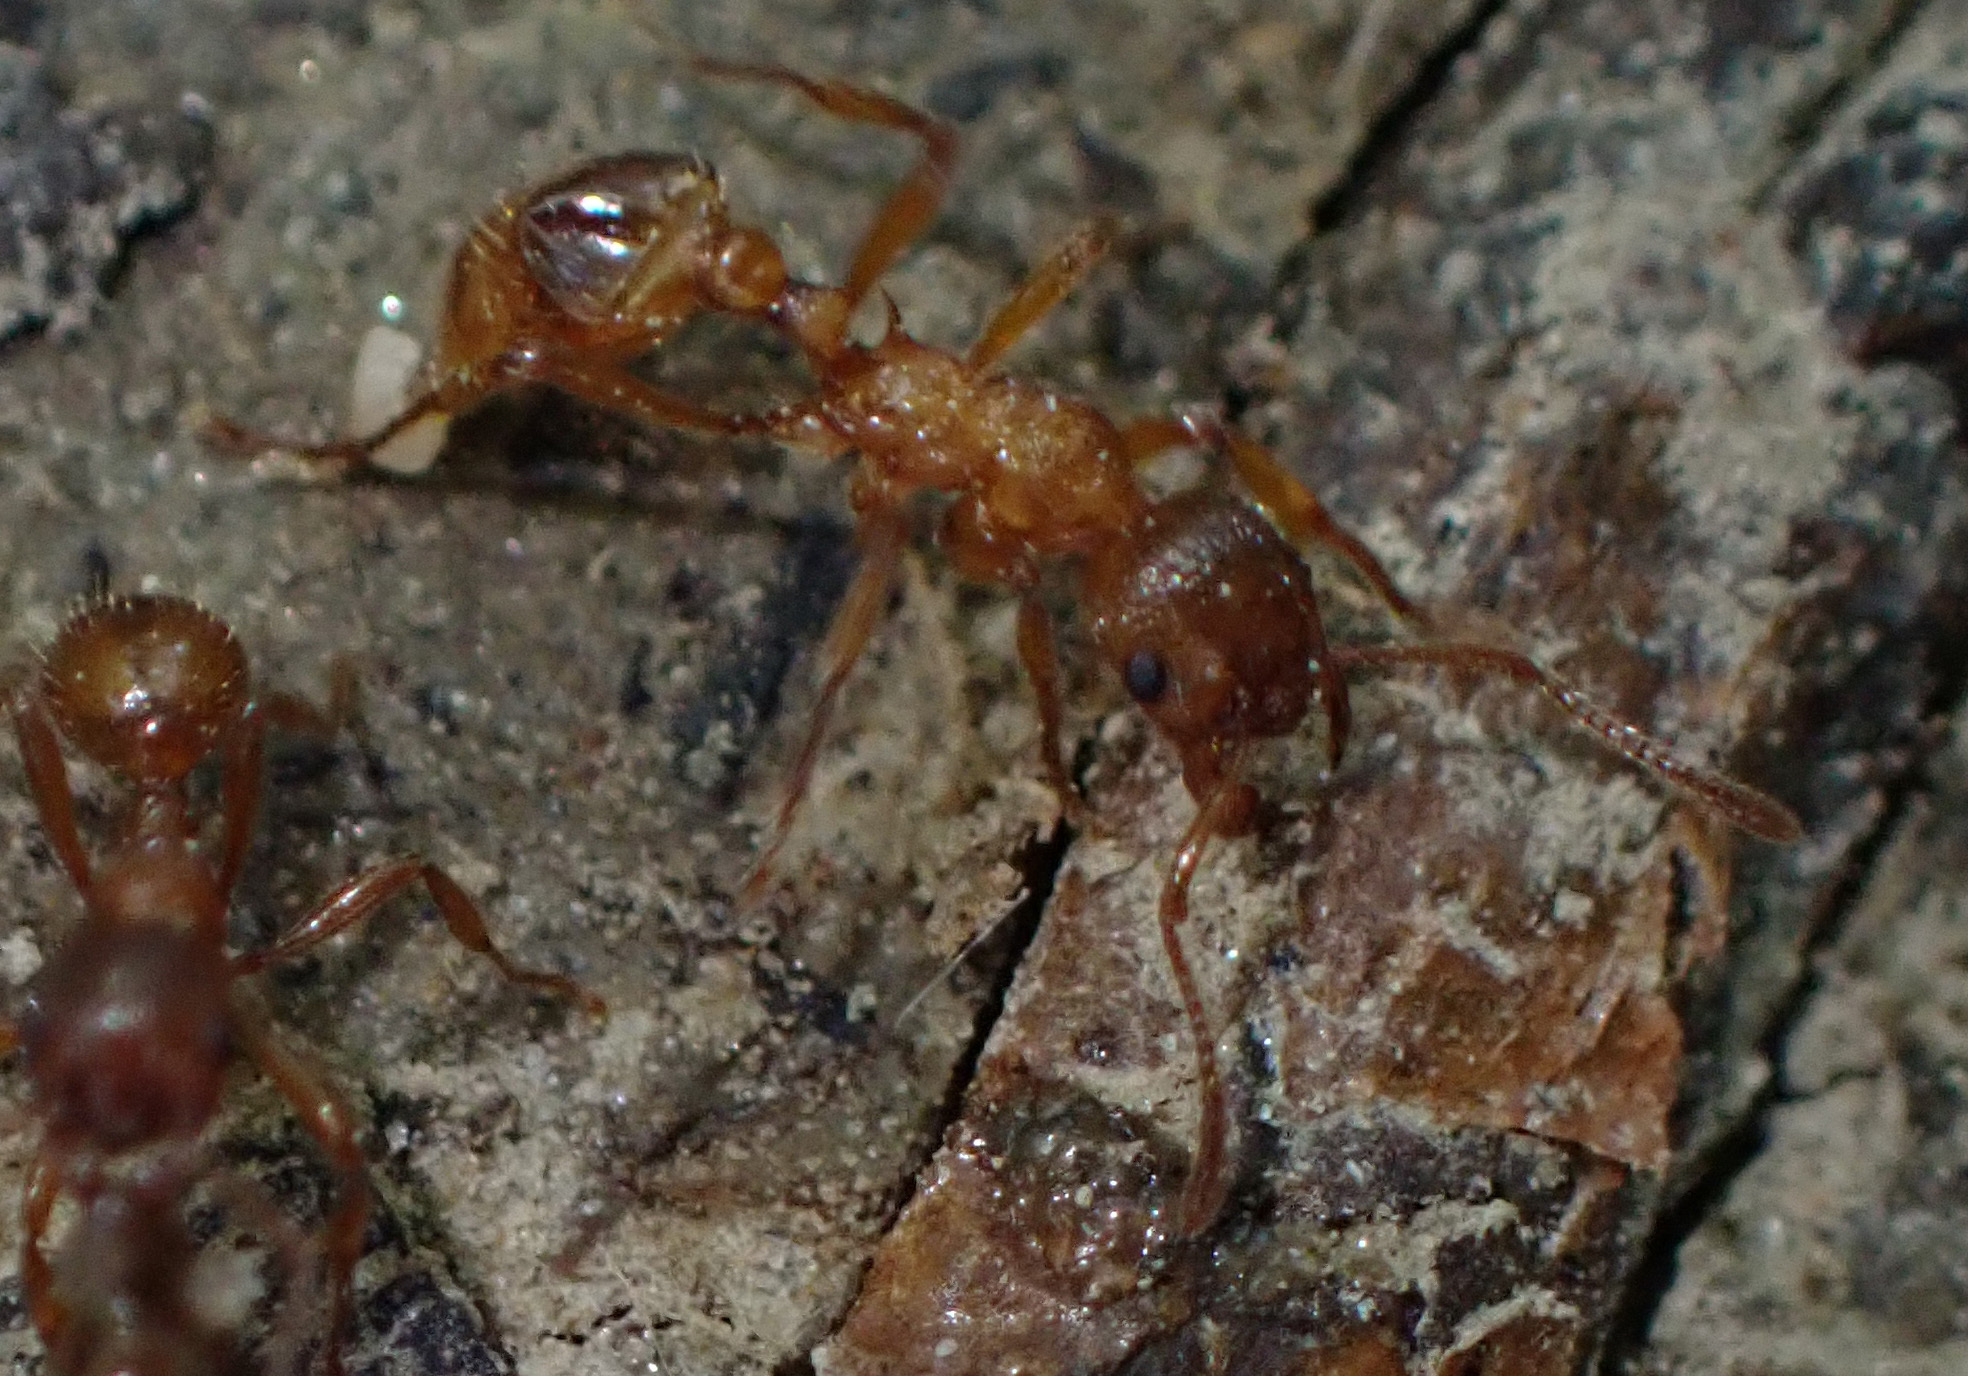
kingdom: Animalia
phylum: Arthropoda
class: Insecta
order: Hymenoptera
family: Formicidae
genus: Myrmica
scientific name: Myrmica rubra
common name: European fire ant
